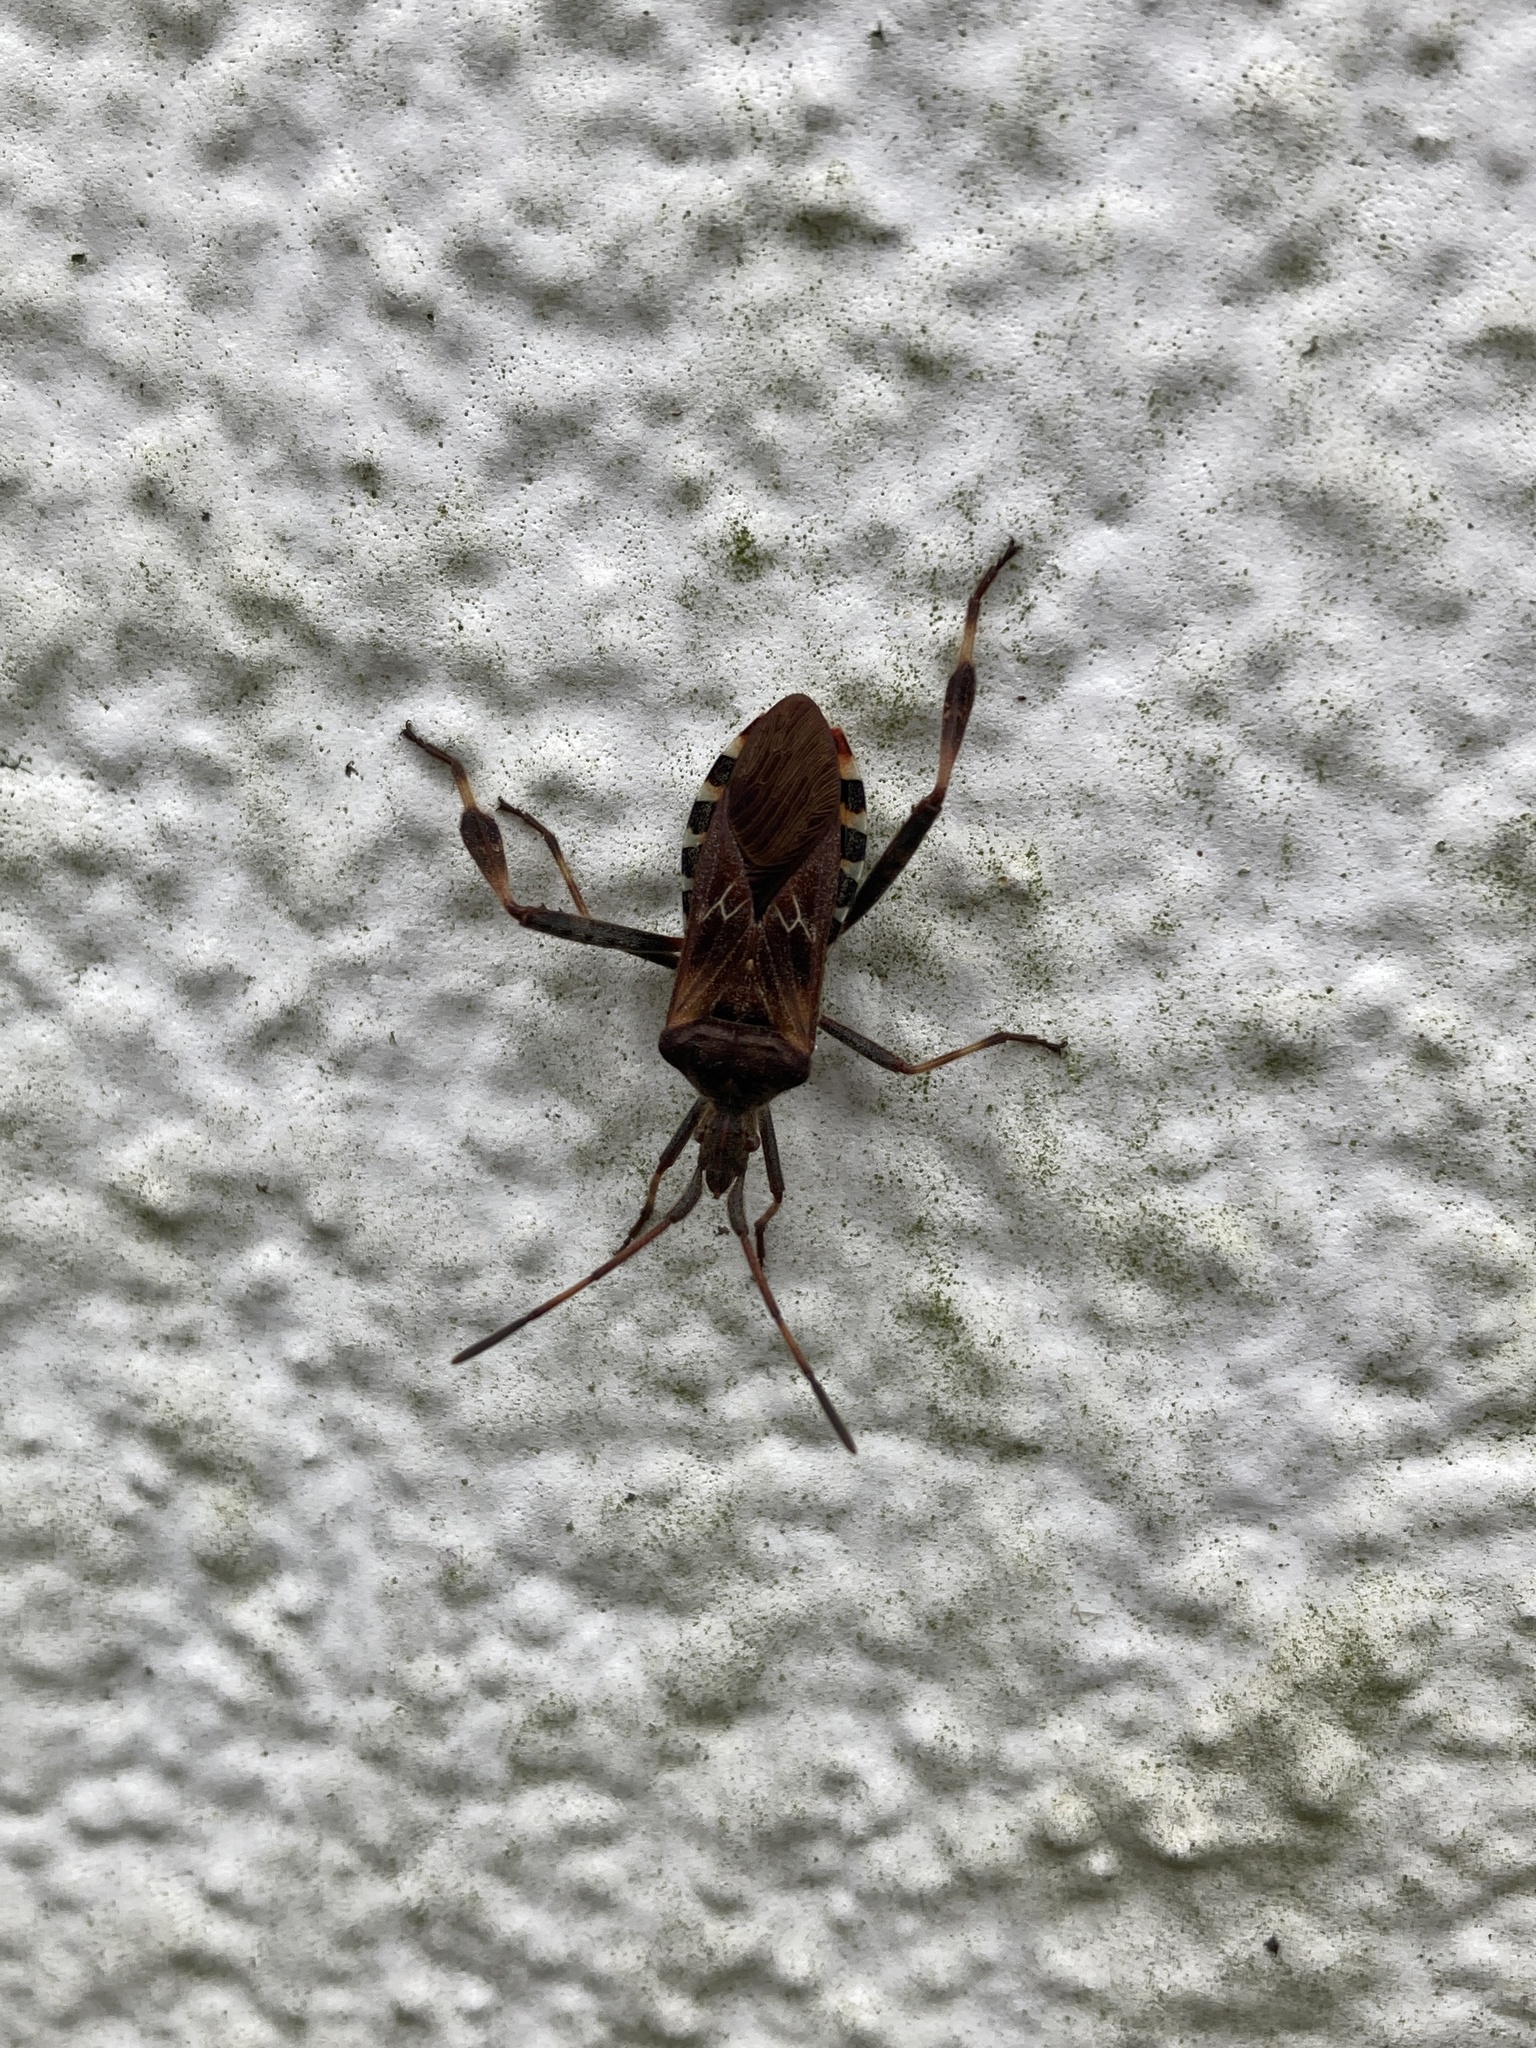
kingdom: Animalia
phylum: Arthropoda
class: Insecta
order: Hemiptera
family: Coreidae
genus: Leptoglossus
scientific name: Leptoglossus occidentalis
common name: Western conifer-seed bug
